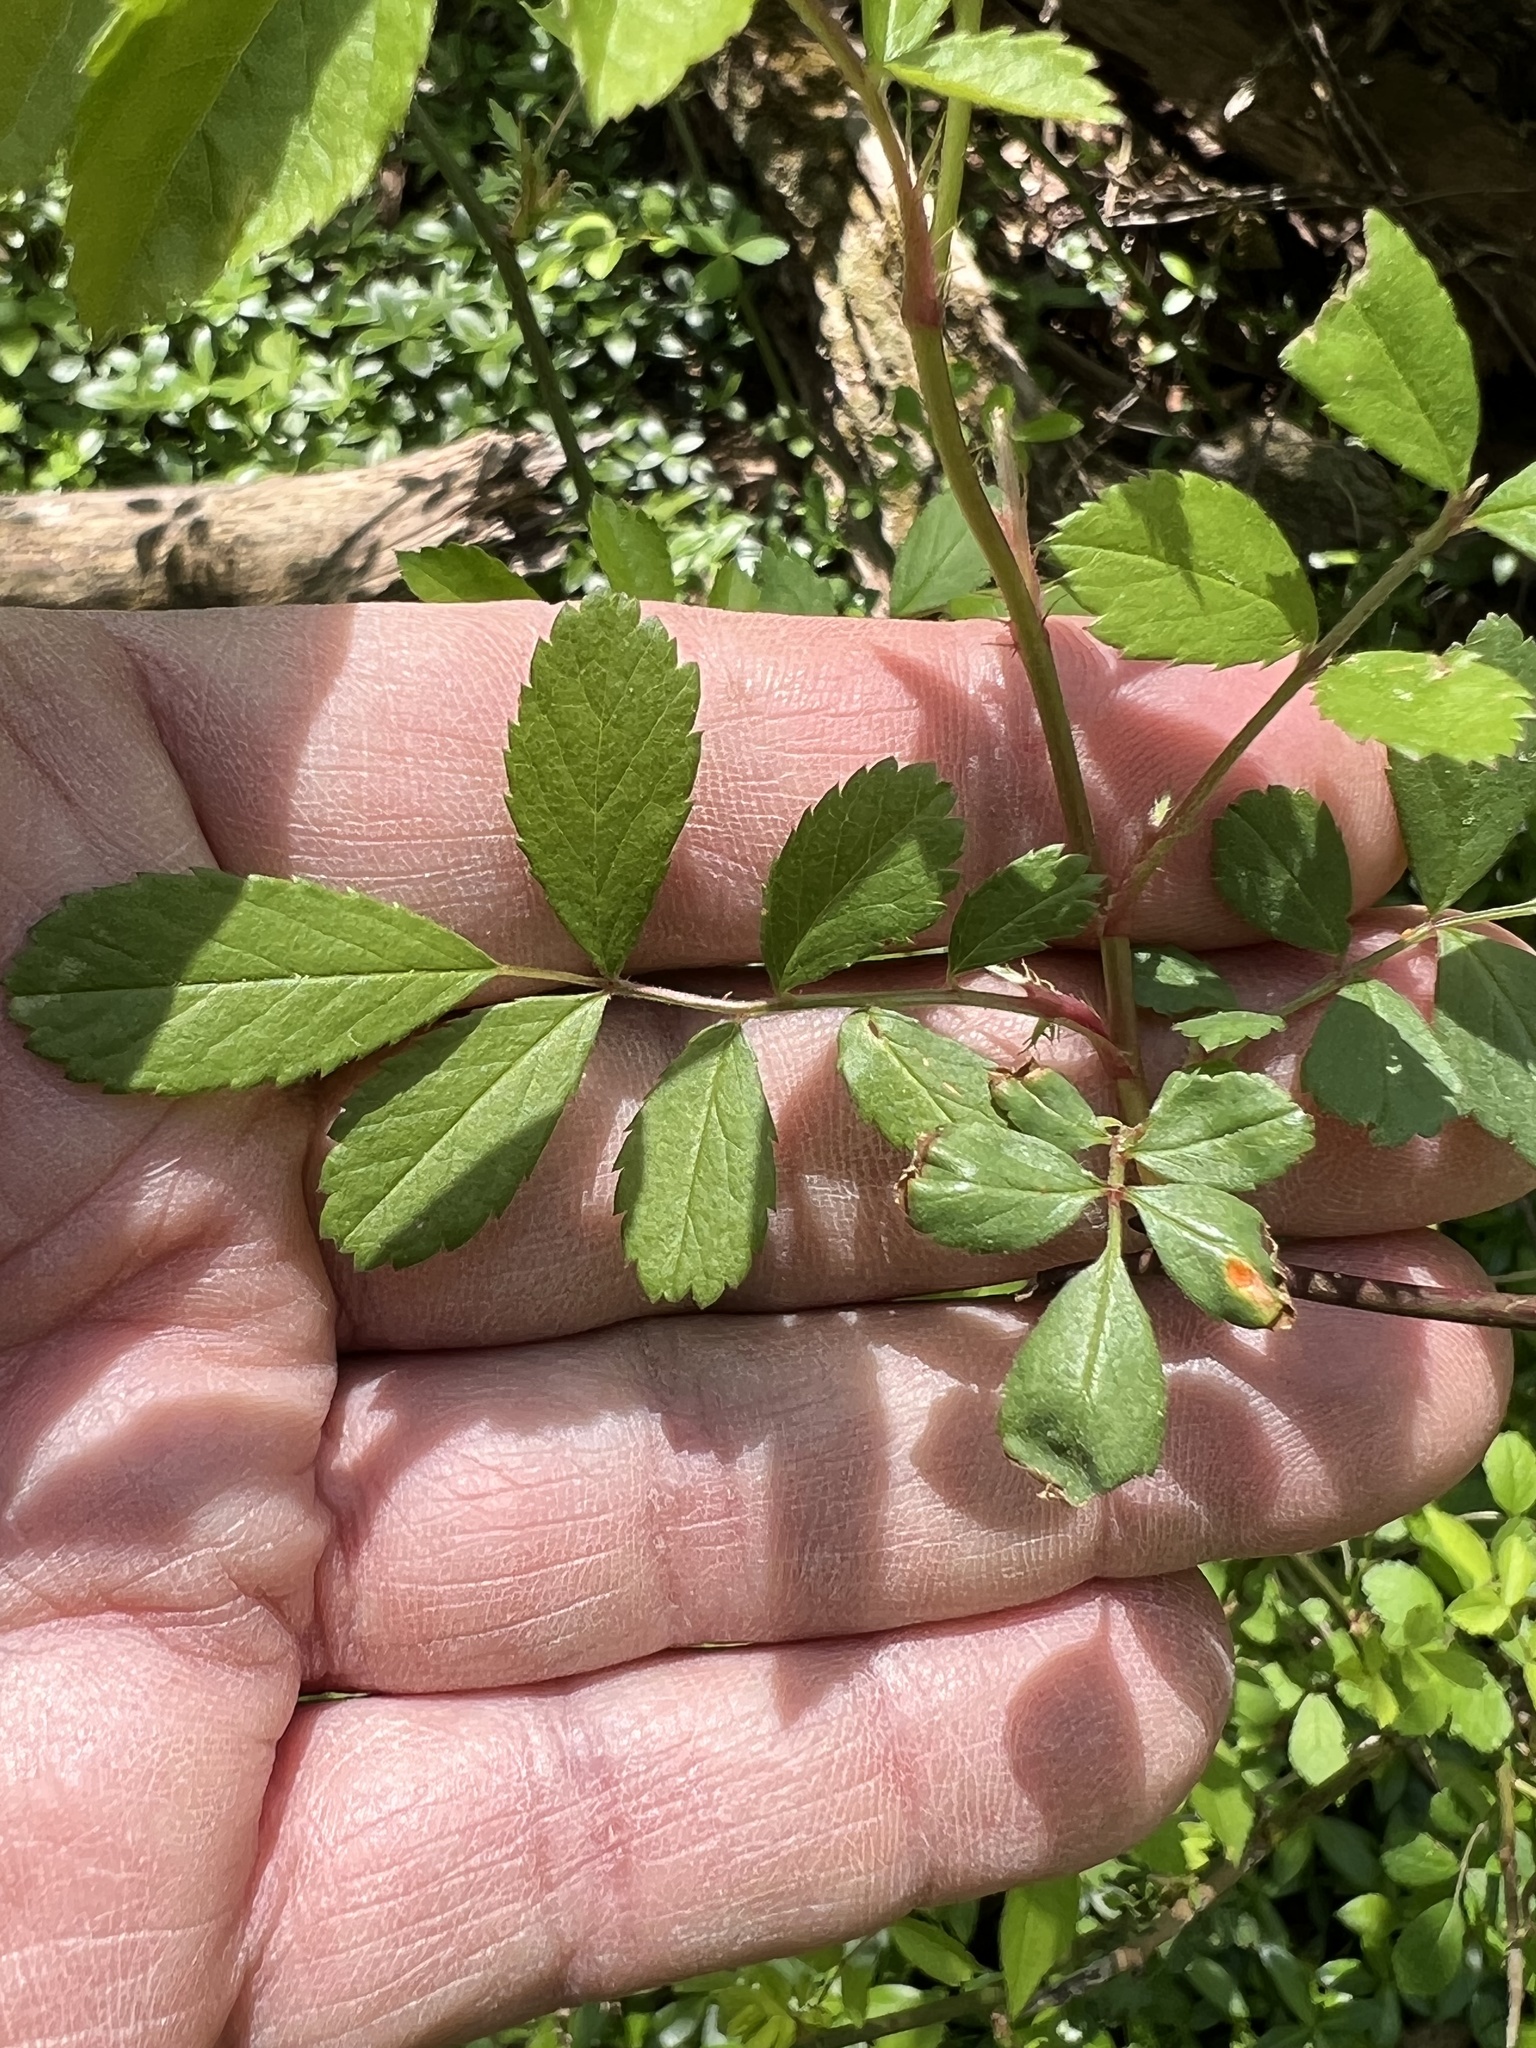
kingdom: Plantae
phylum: Tracheophyta
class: Magnoliopsida
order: Rosales
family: Rosaceae
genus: Rosa
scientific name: Rosa multiflora
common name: Multiflora rose
